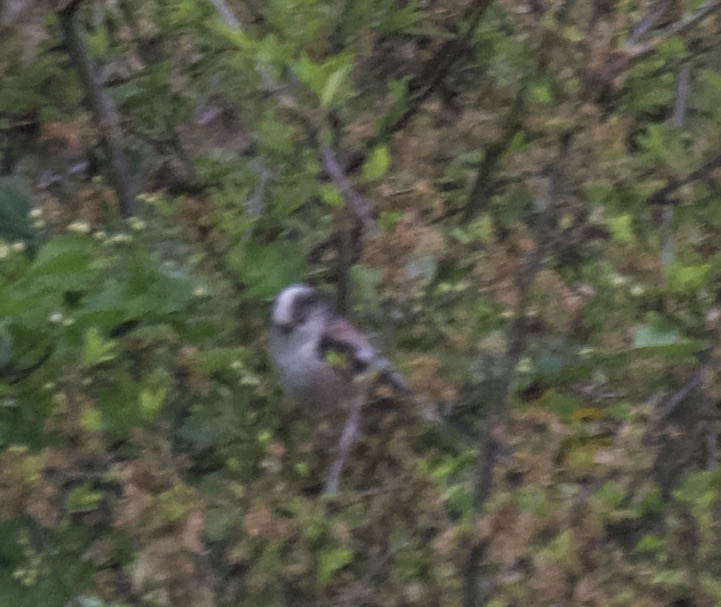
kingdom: Animalia
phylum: Chordata
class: Aves
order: Passeriformes
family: Aegithalidae
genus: Aegithalos
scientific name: Aegithalos caudatus
